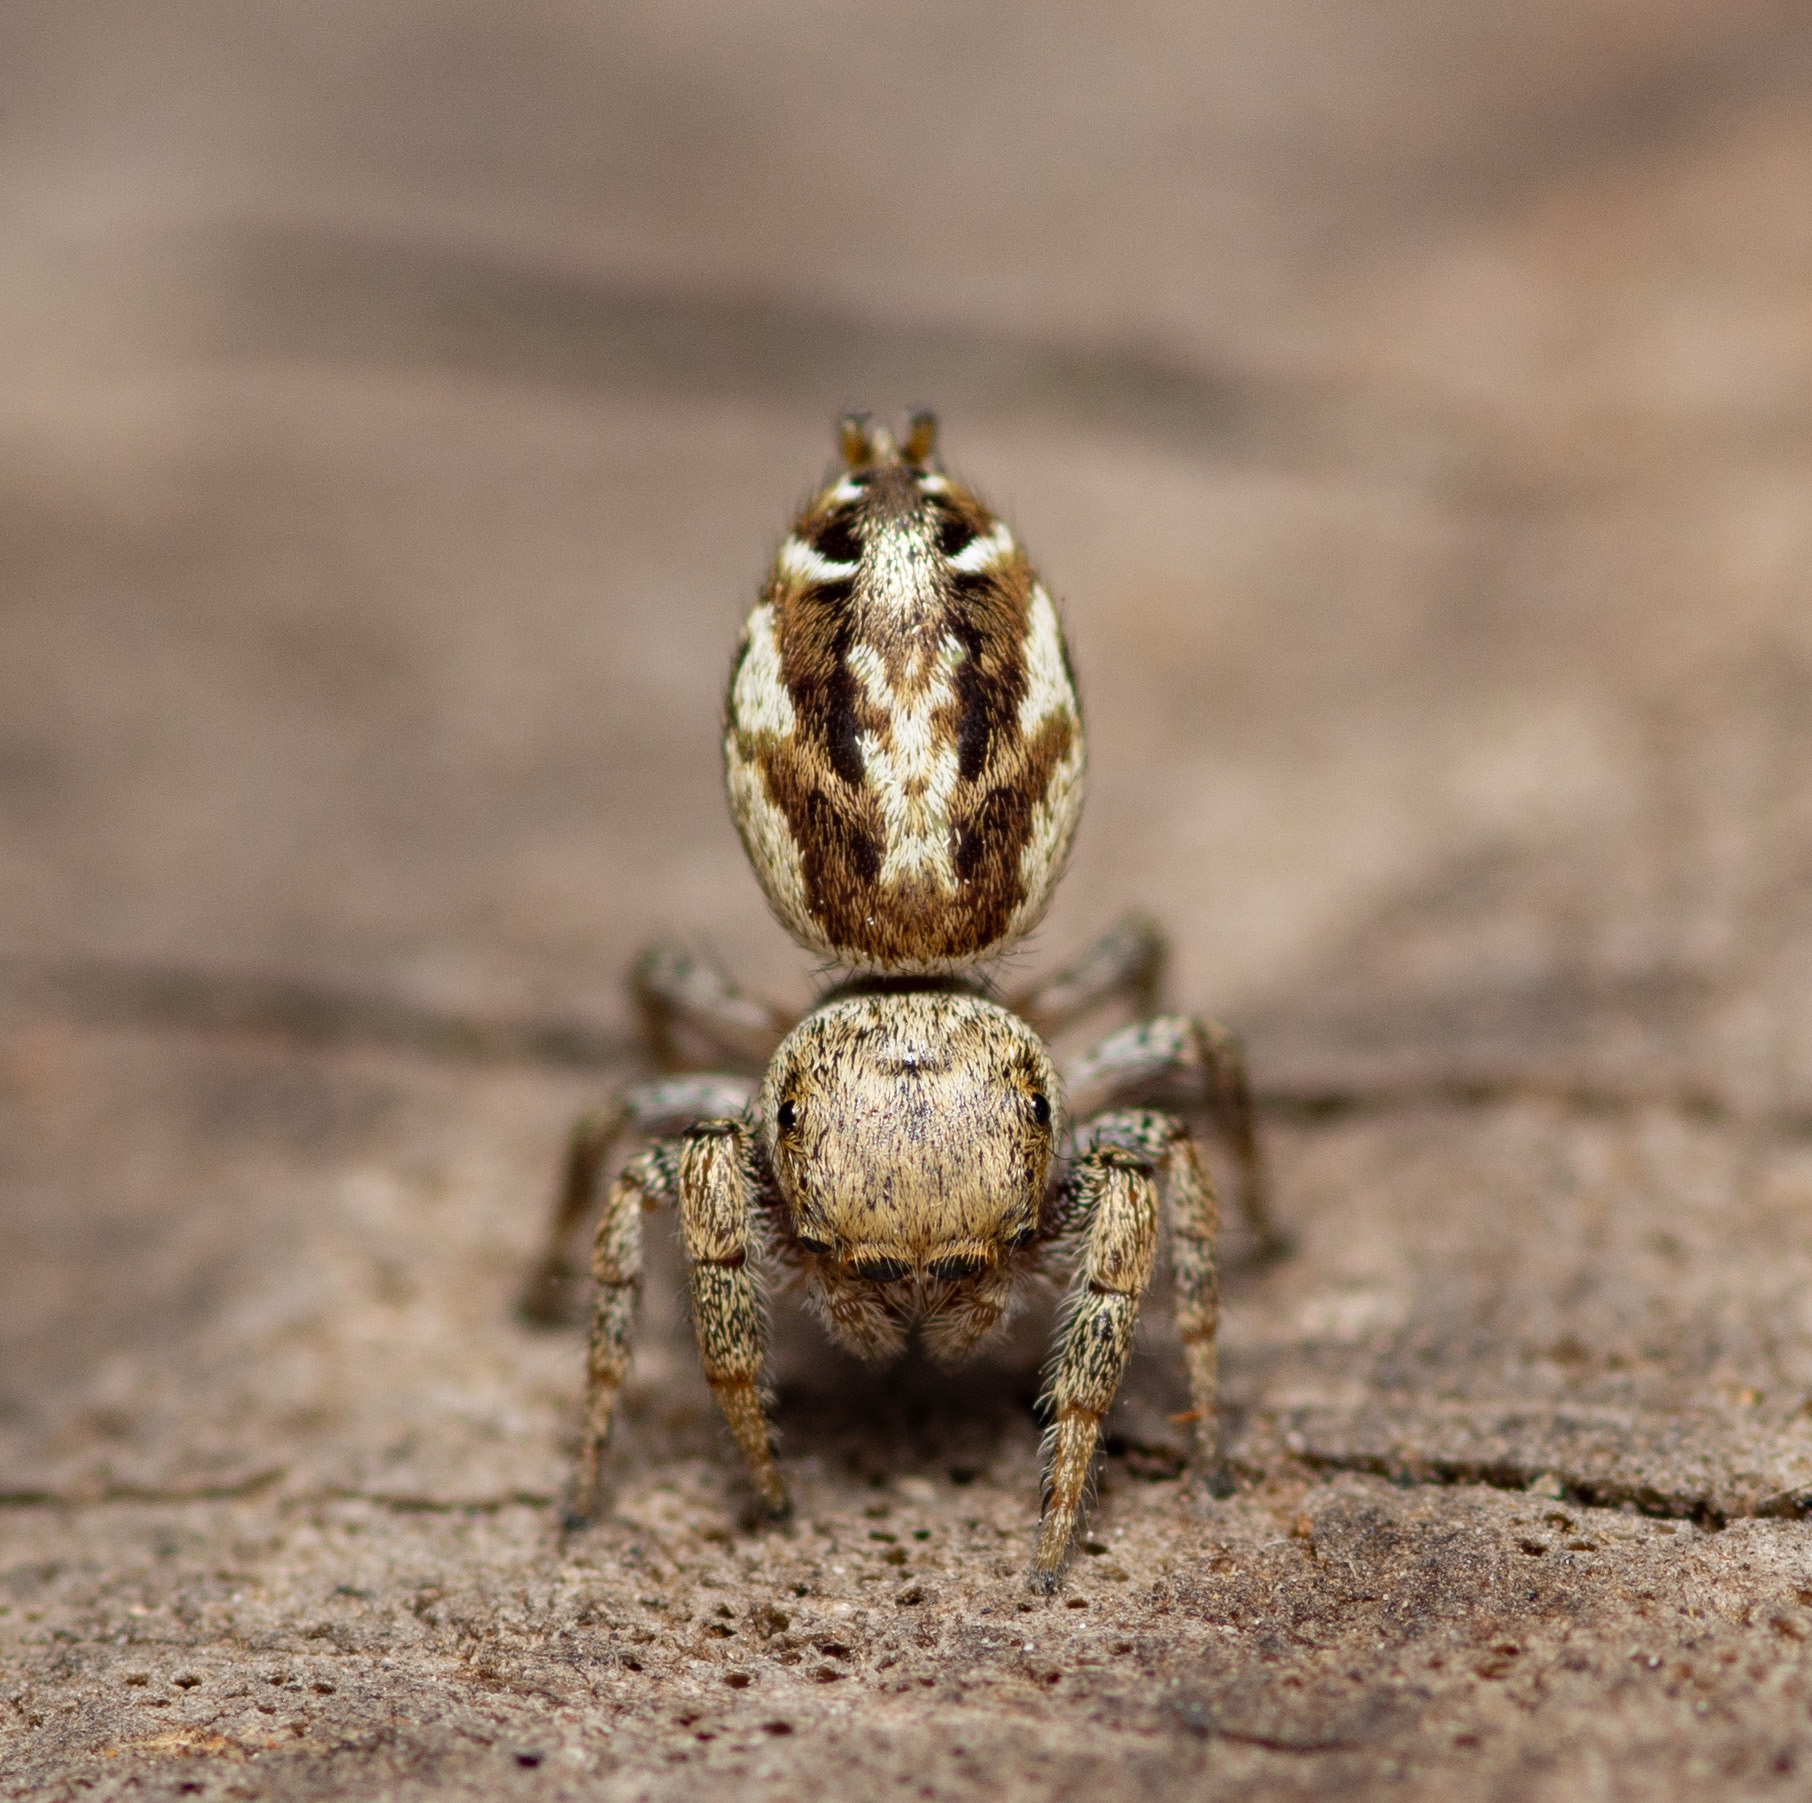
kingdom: Animalia
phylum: Arthropoda
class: Arachnida
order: Araneae
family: Salticidae
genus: Pelegrina
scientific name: Pelegrina pervaga
